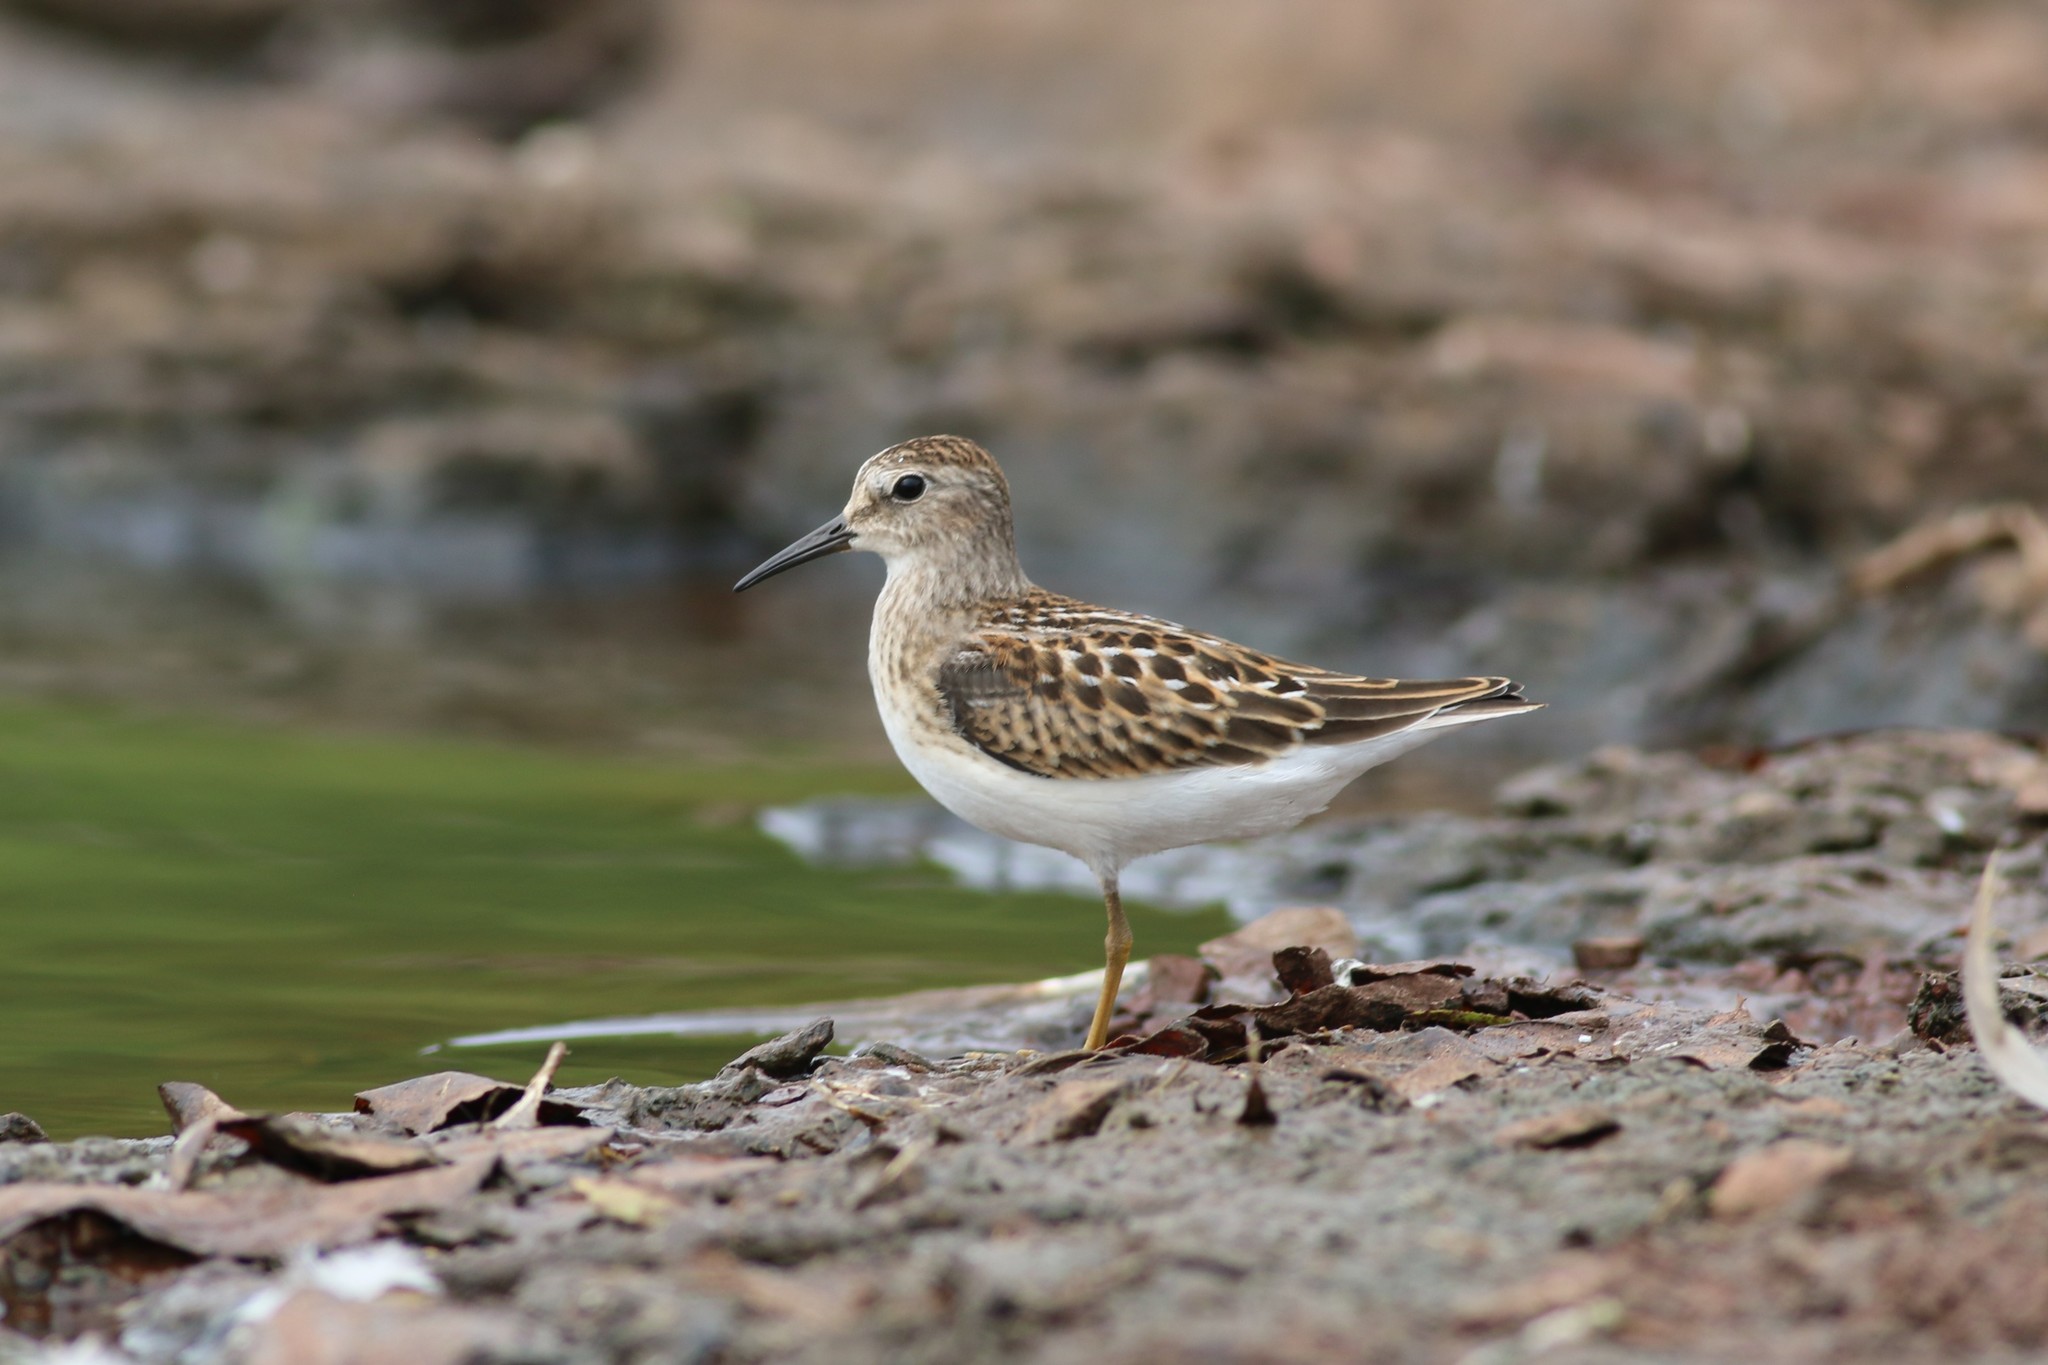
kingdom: Animalia
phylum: Chordata
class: Aves
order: Charadriiformes
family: Scolopacidae
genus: Calidris
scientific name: Calidris minutilla
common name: Least sandpiper
